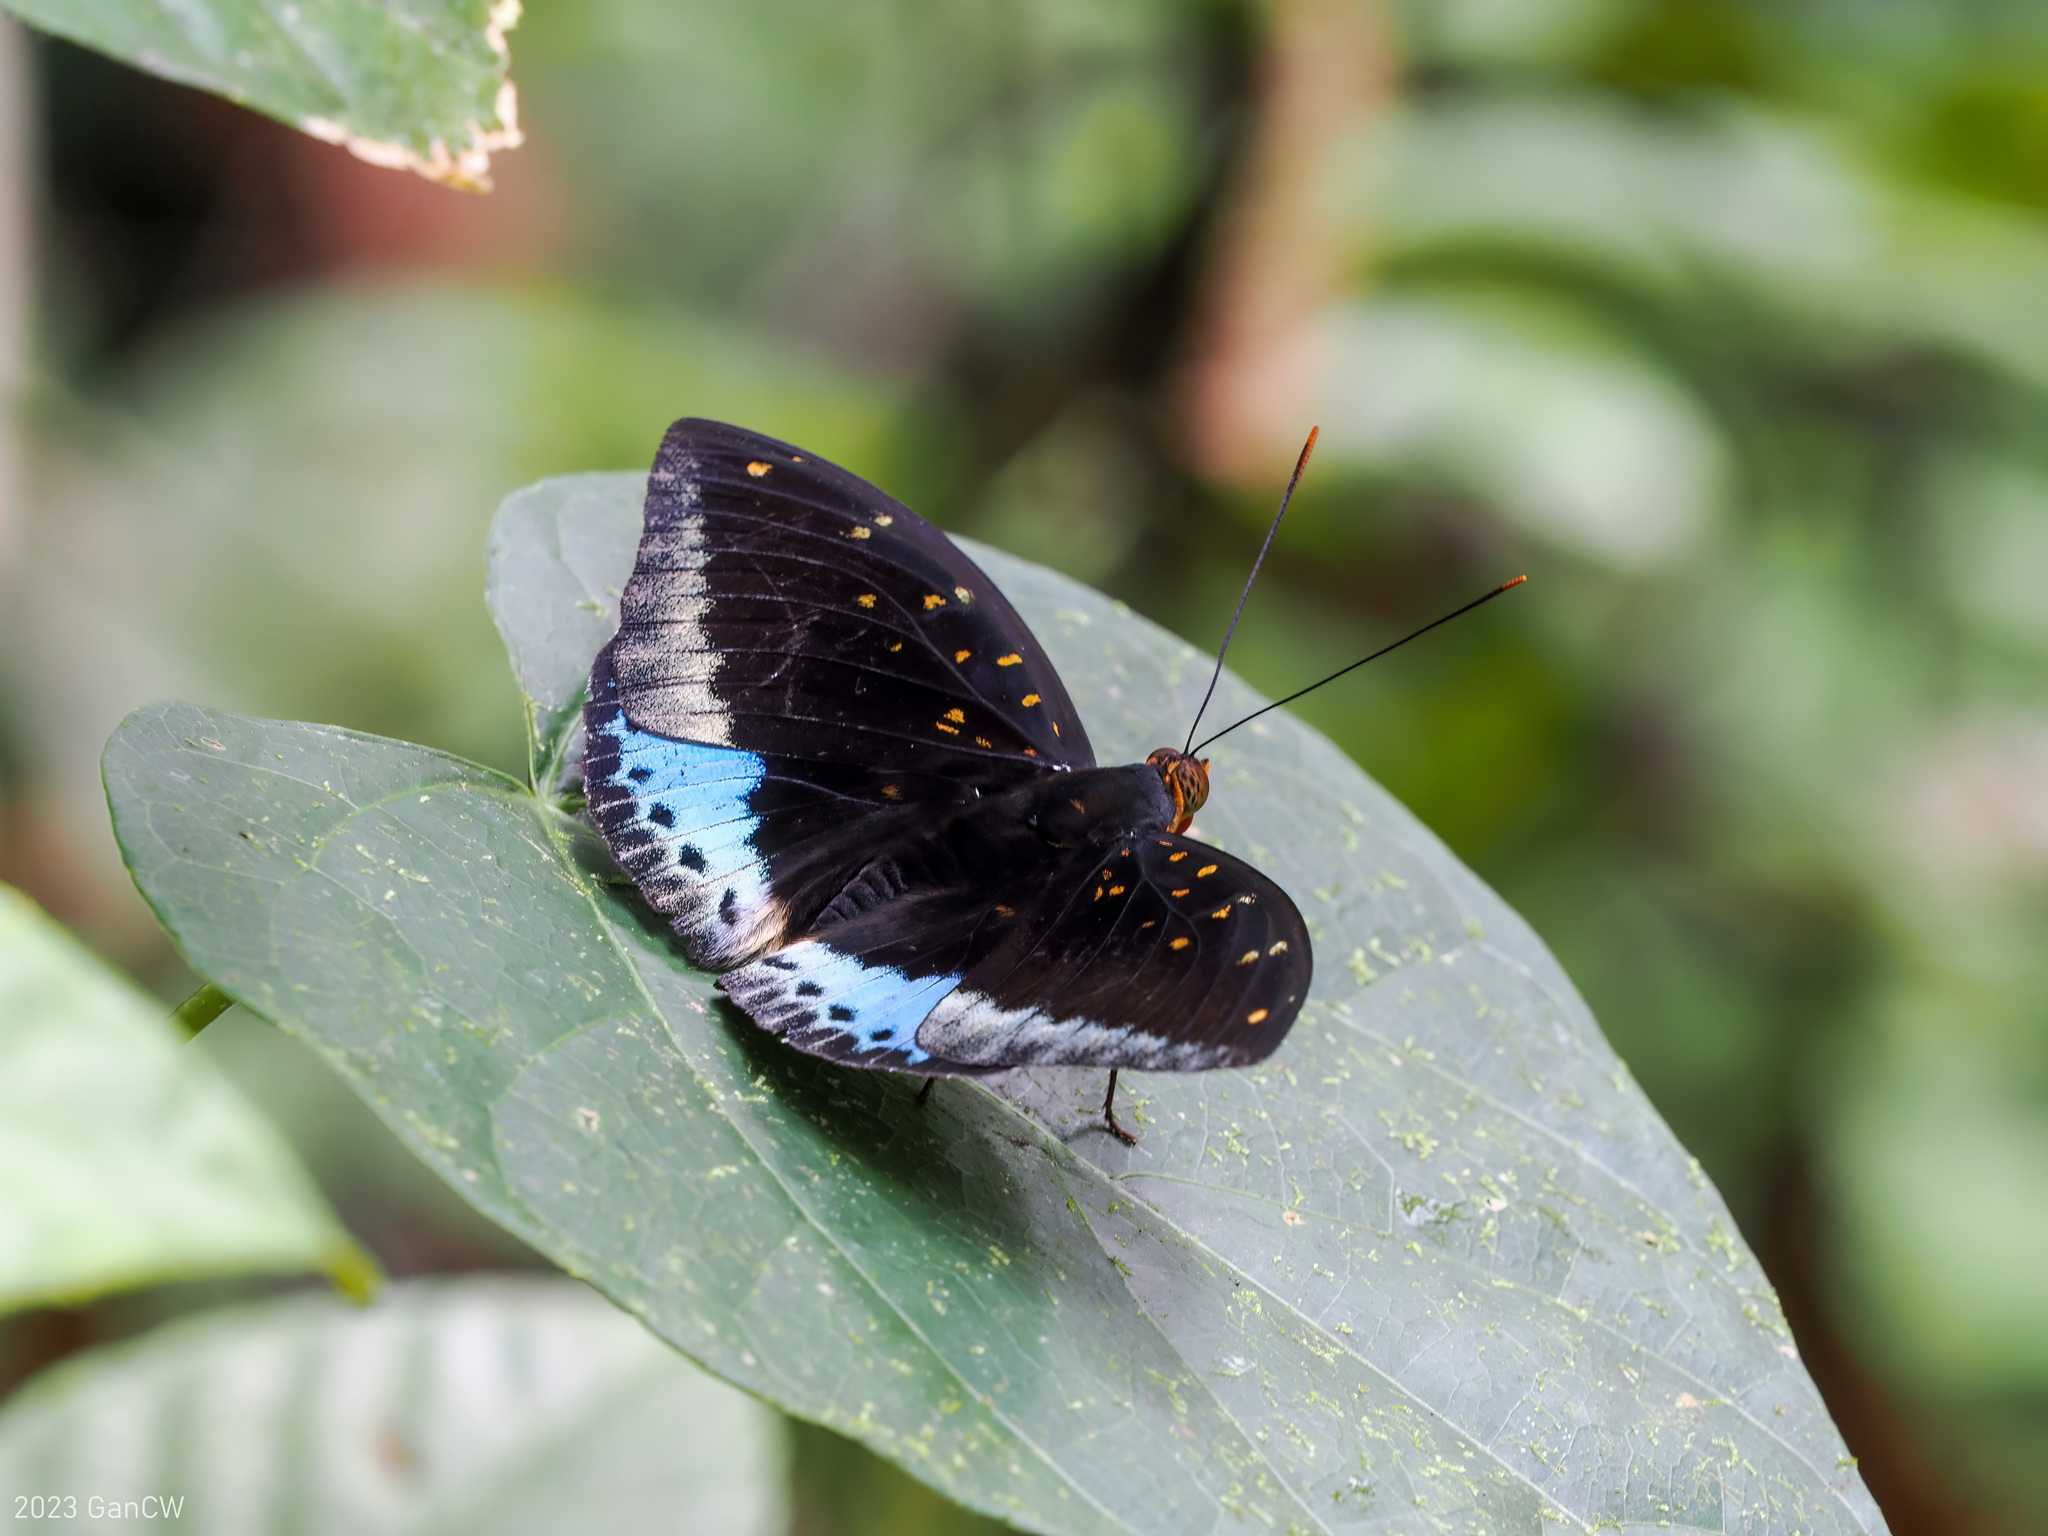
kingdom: Animalia
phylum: Arthropoda
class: Insecta
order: Lepidoptera
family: Nymphalidae
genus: Lexias
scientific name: Lexias pardalis
